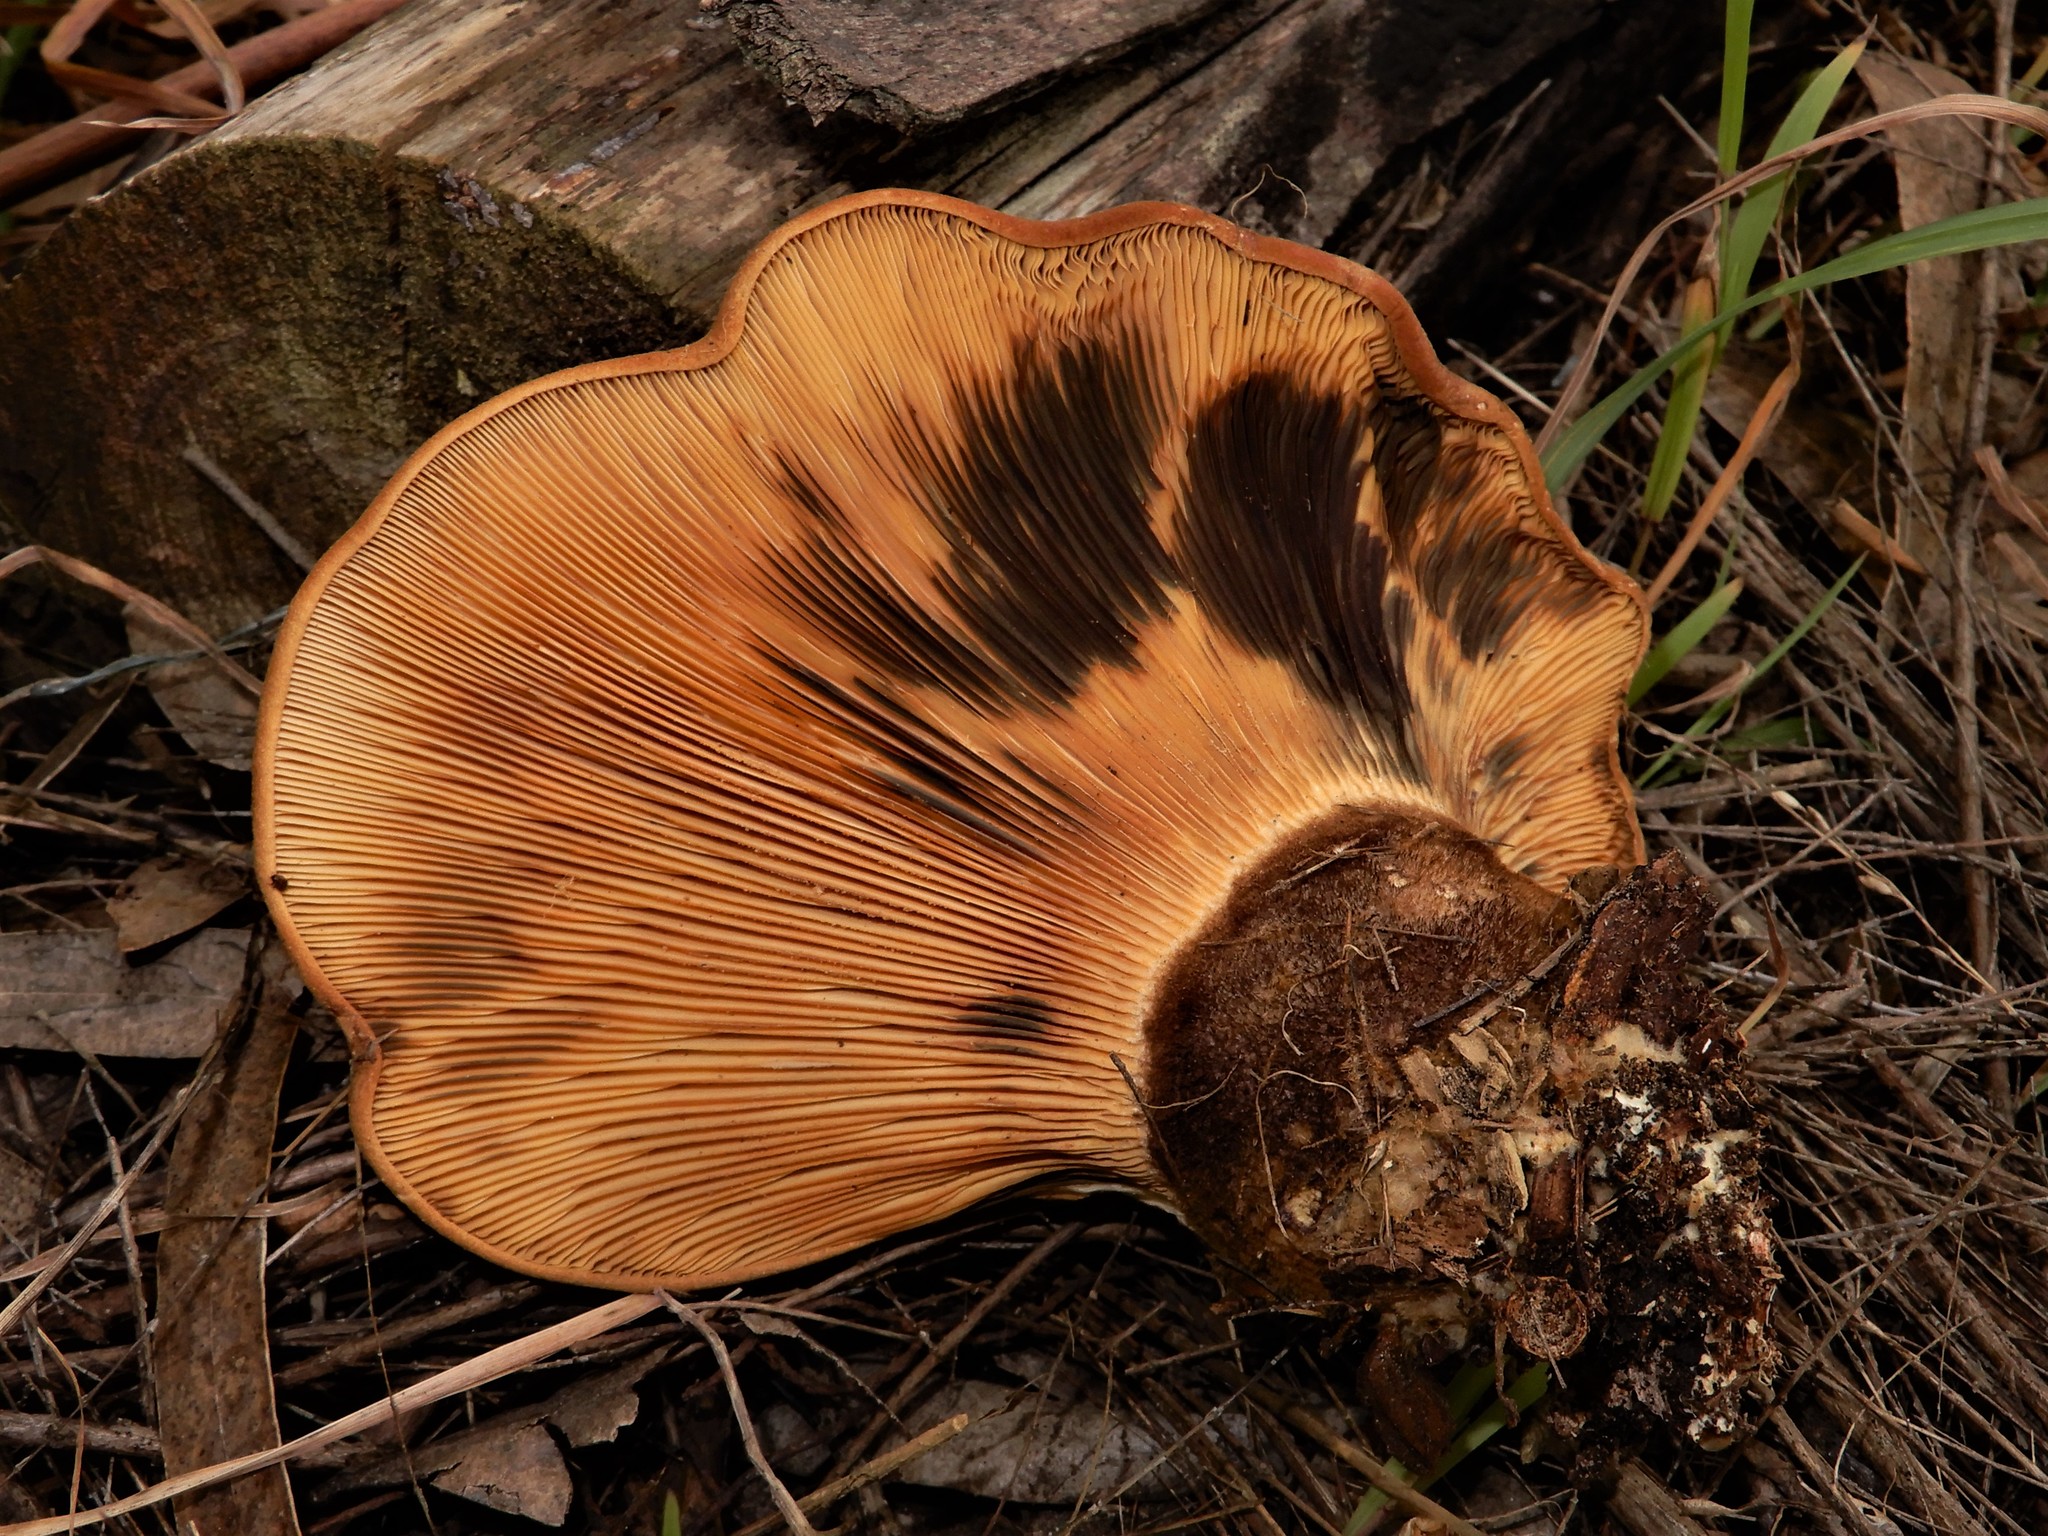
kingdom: Fungi
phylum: Basidiomycota
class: Agaricomycetes
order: Boletales
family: Tapinellaceae
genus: Tapinella
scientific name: Tapinella atrotomentosa
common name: Velvet rollrim
